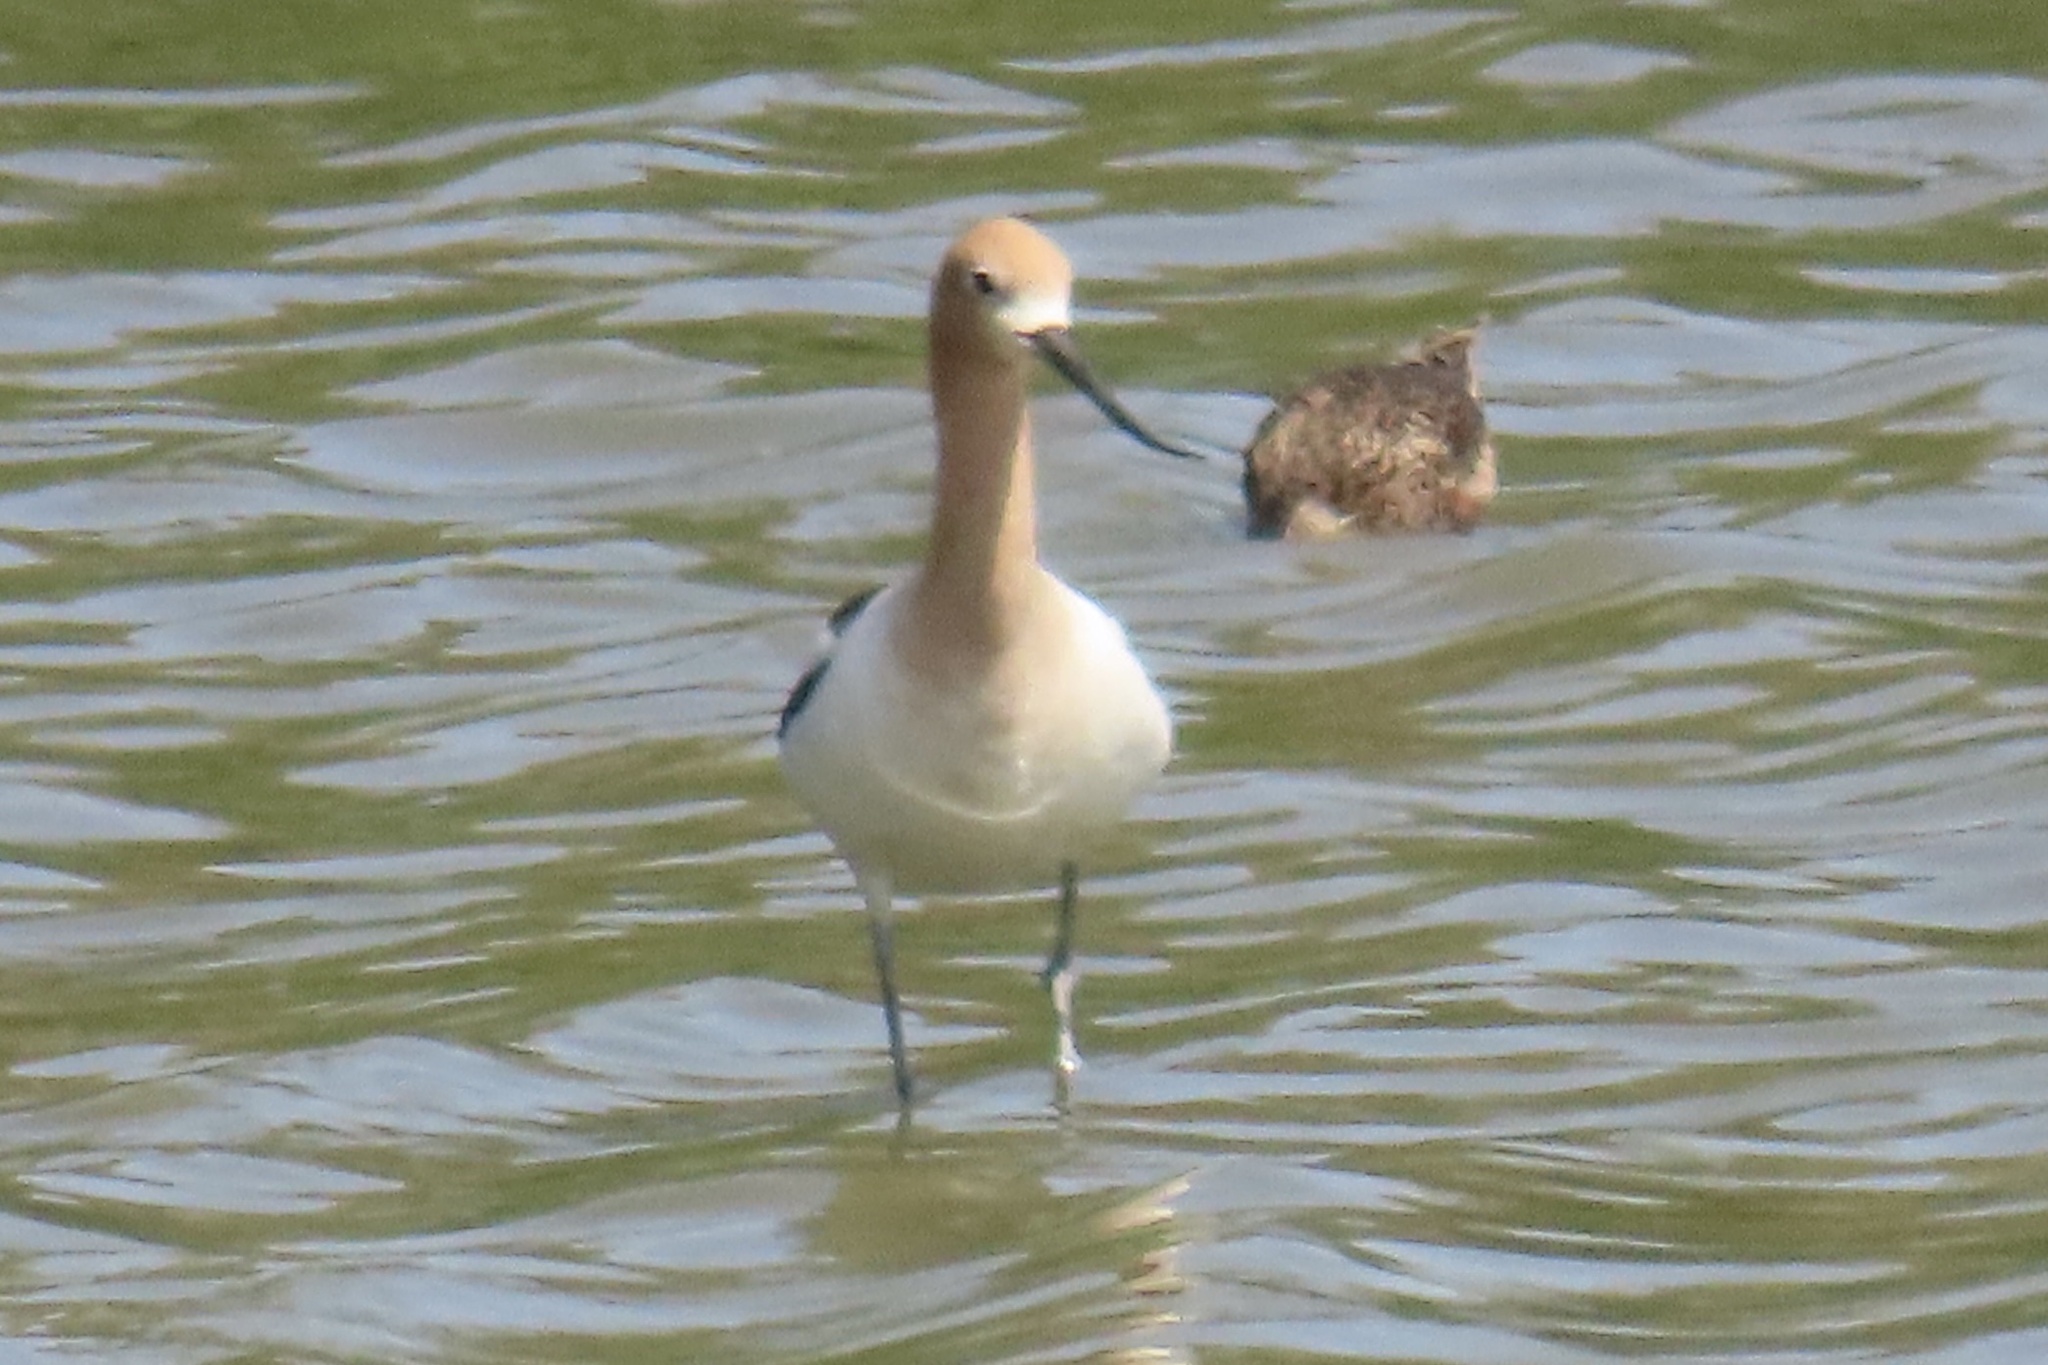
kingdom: Animalia
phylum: Chordata
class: Aves
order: Charadriiformes
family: Recurvirostridae
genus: Recurvirostra
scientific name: Recurvirostra americana
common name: American avocet
